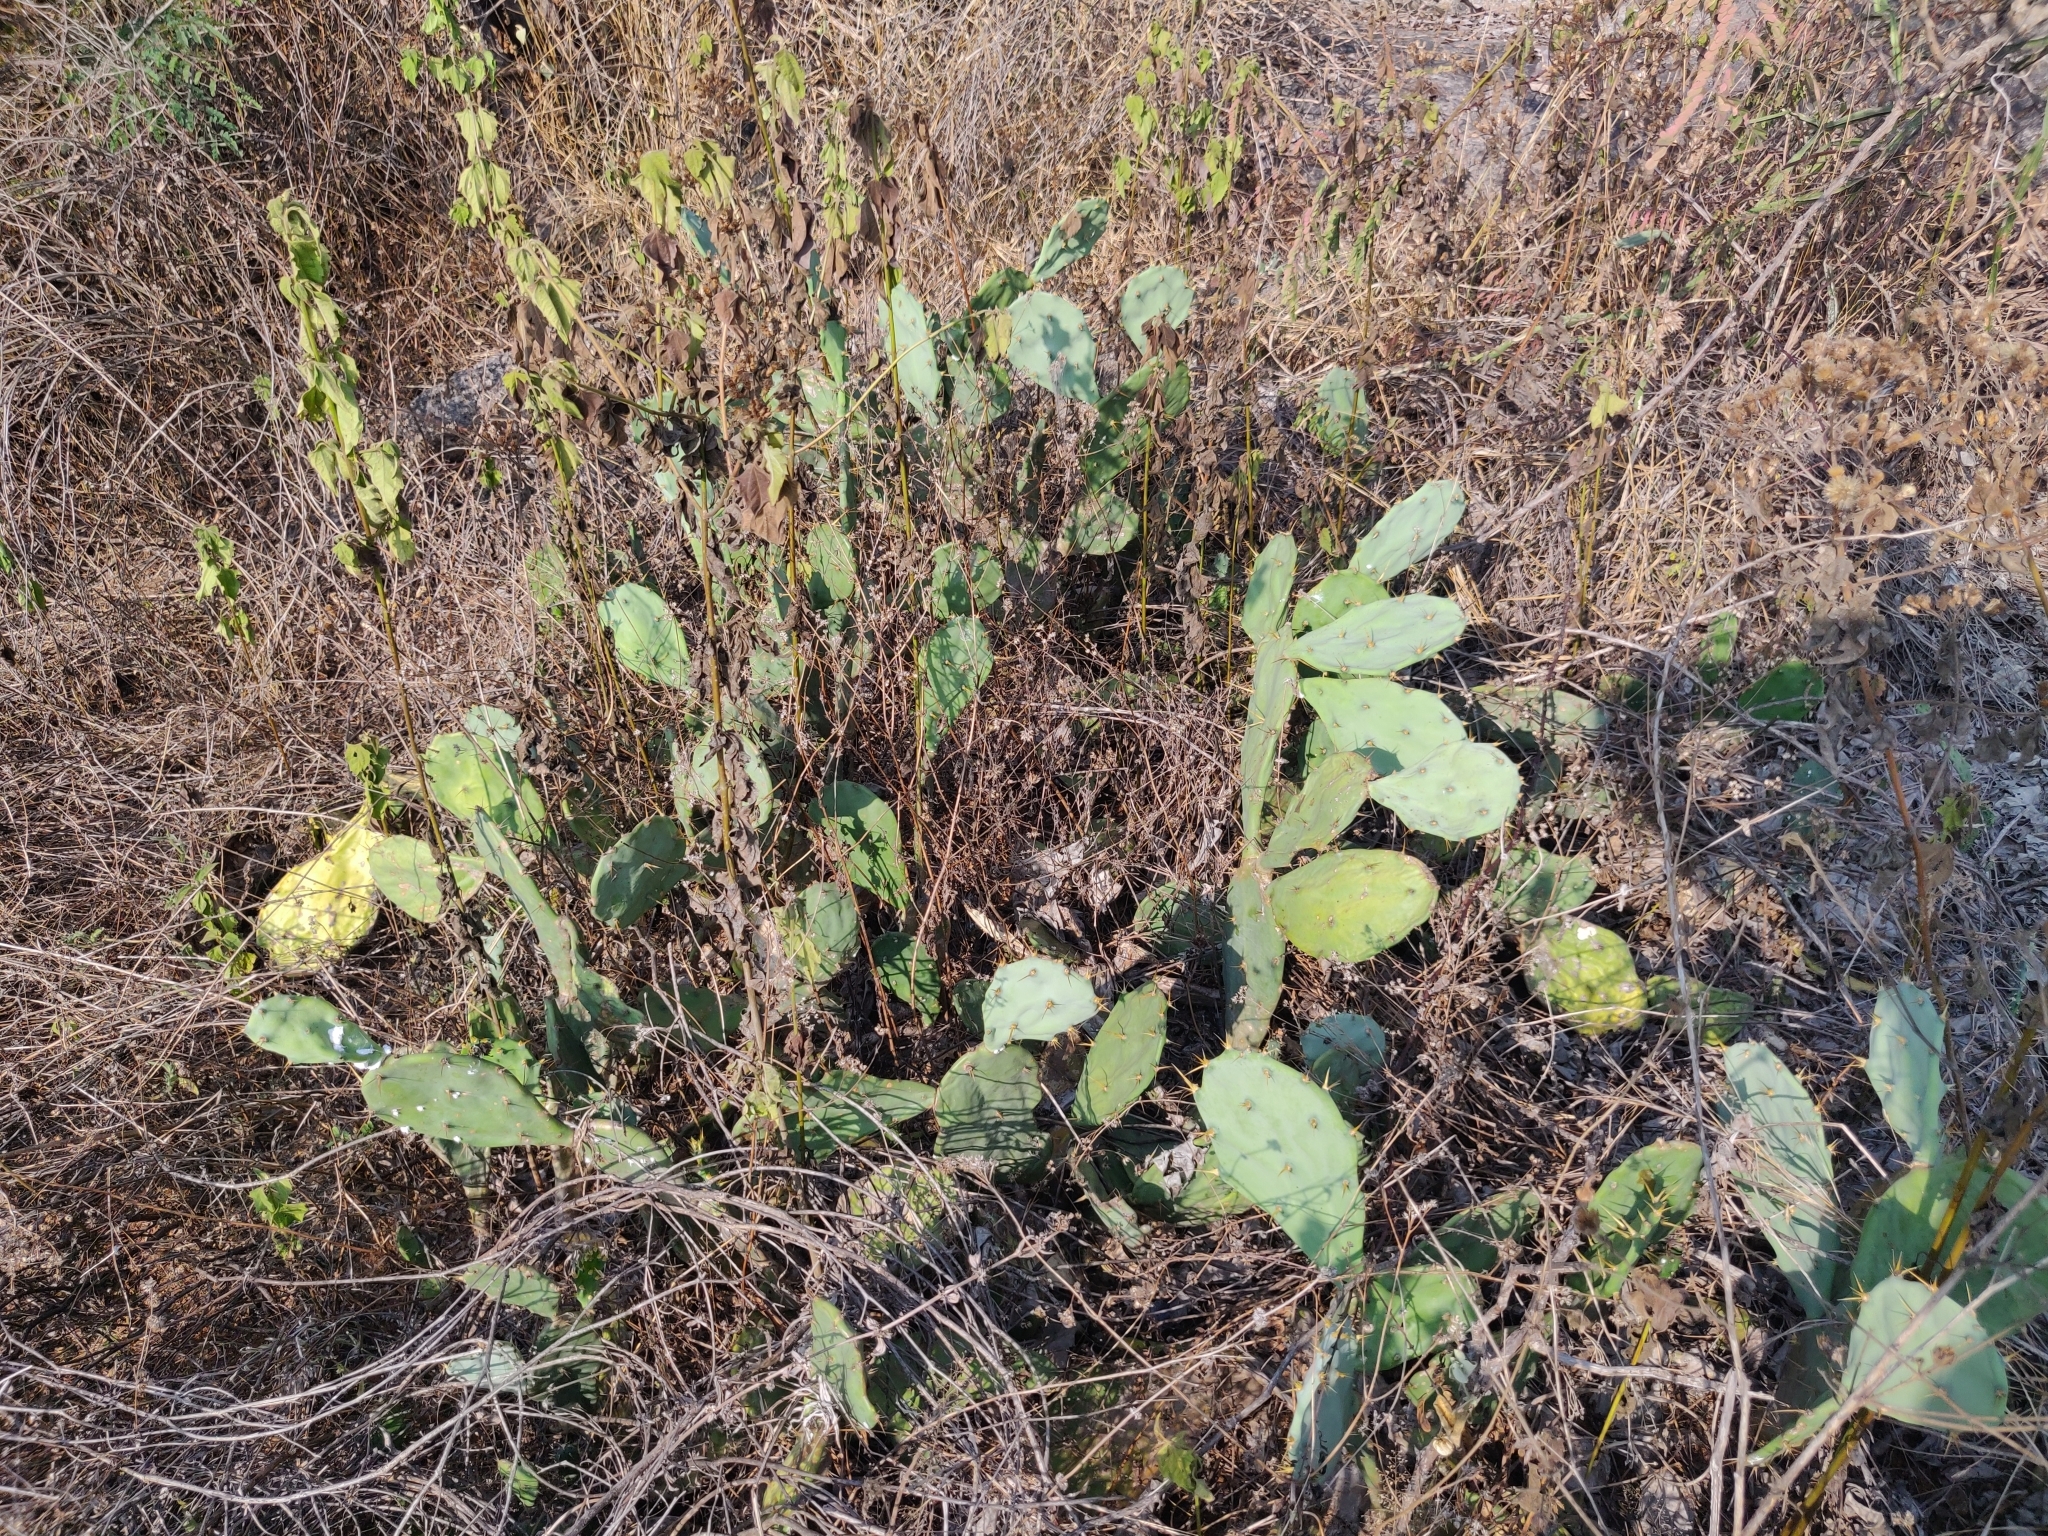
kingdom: Plantae
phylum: Tracheophyta
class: Magnoliopsida
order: Caryophyllales
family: Cactaceae
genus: Opuntia
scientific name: Opuntia stricta
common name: Erect pricklypear
